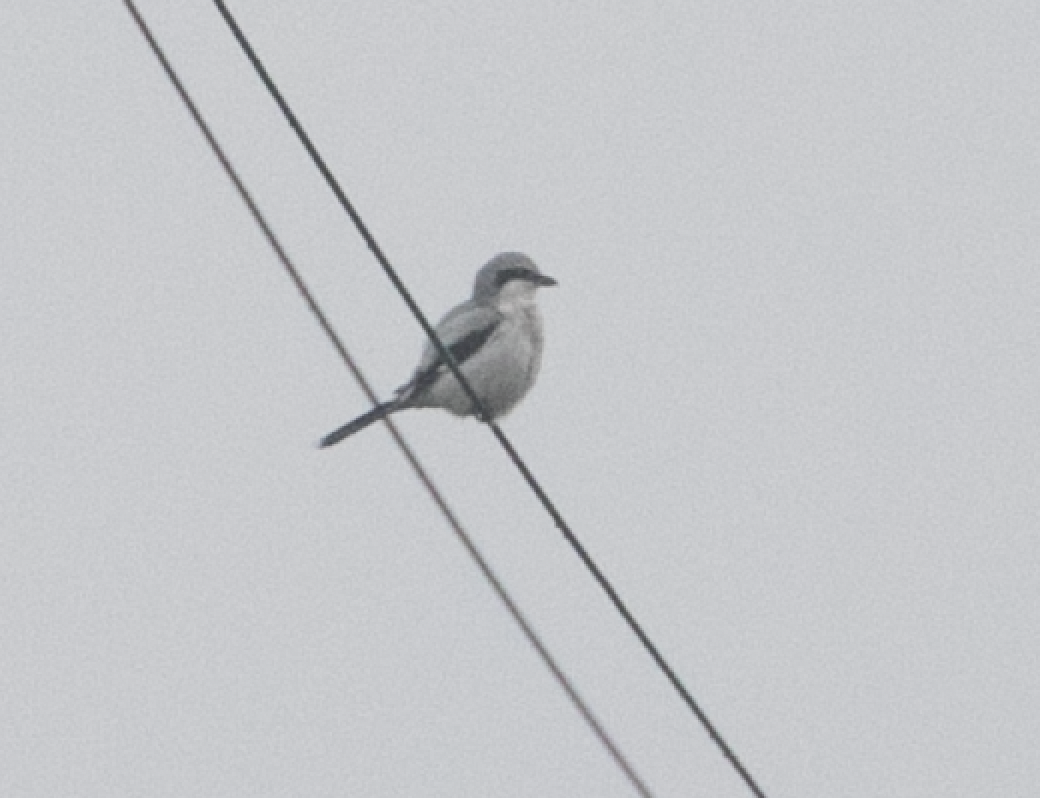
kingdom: Animalia
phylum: Chordata
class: Aves
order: Passeriformes
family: Laniidae
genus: Lanius
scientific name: Lanius excubitor
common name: Great grey shrike
